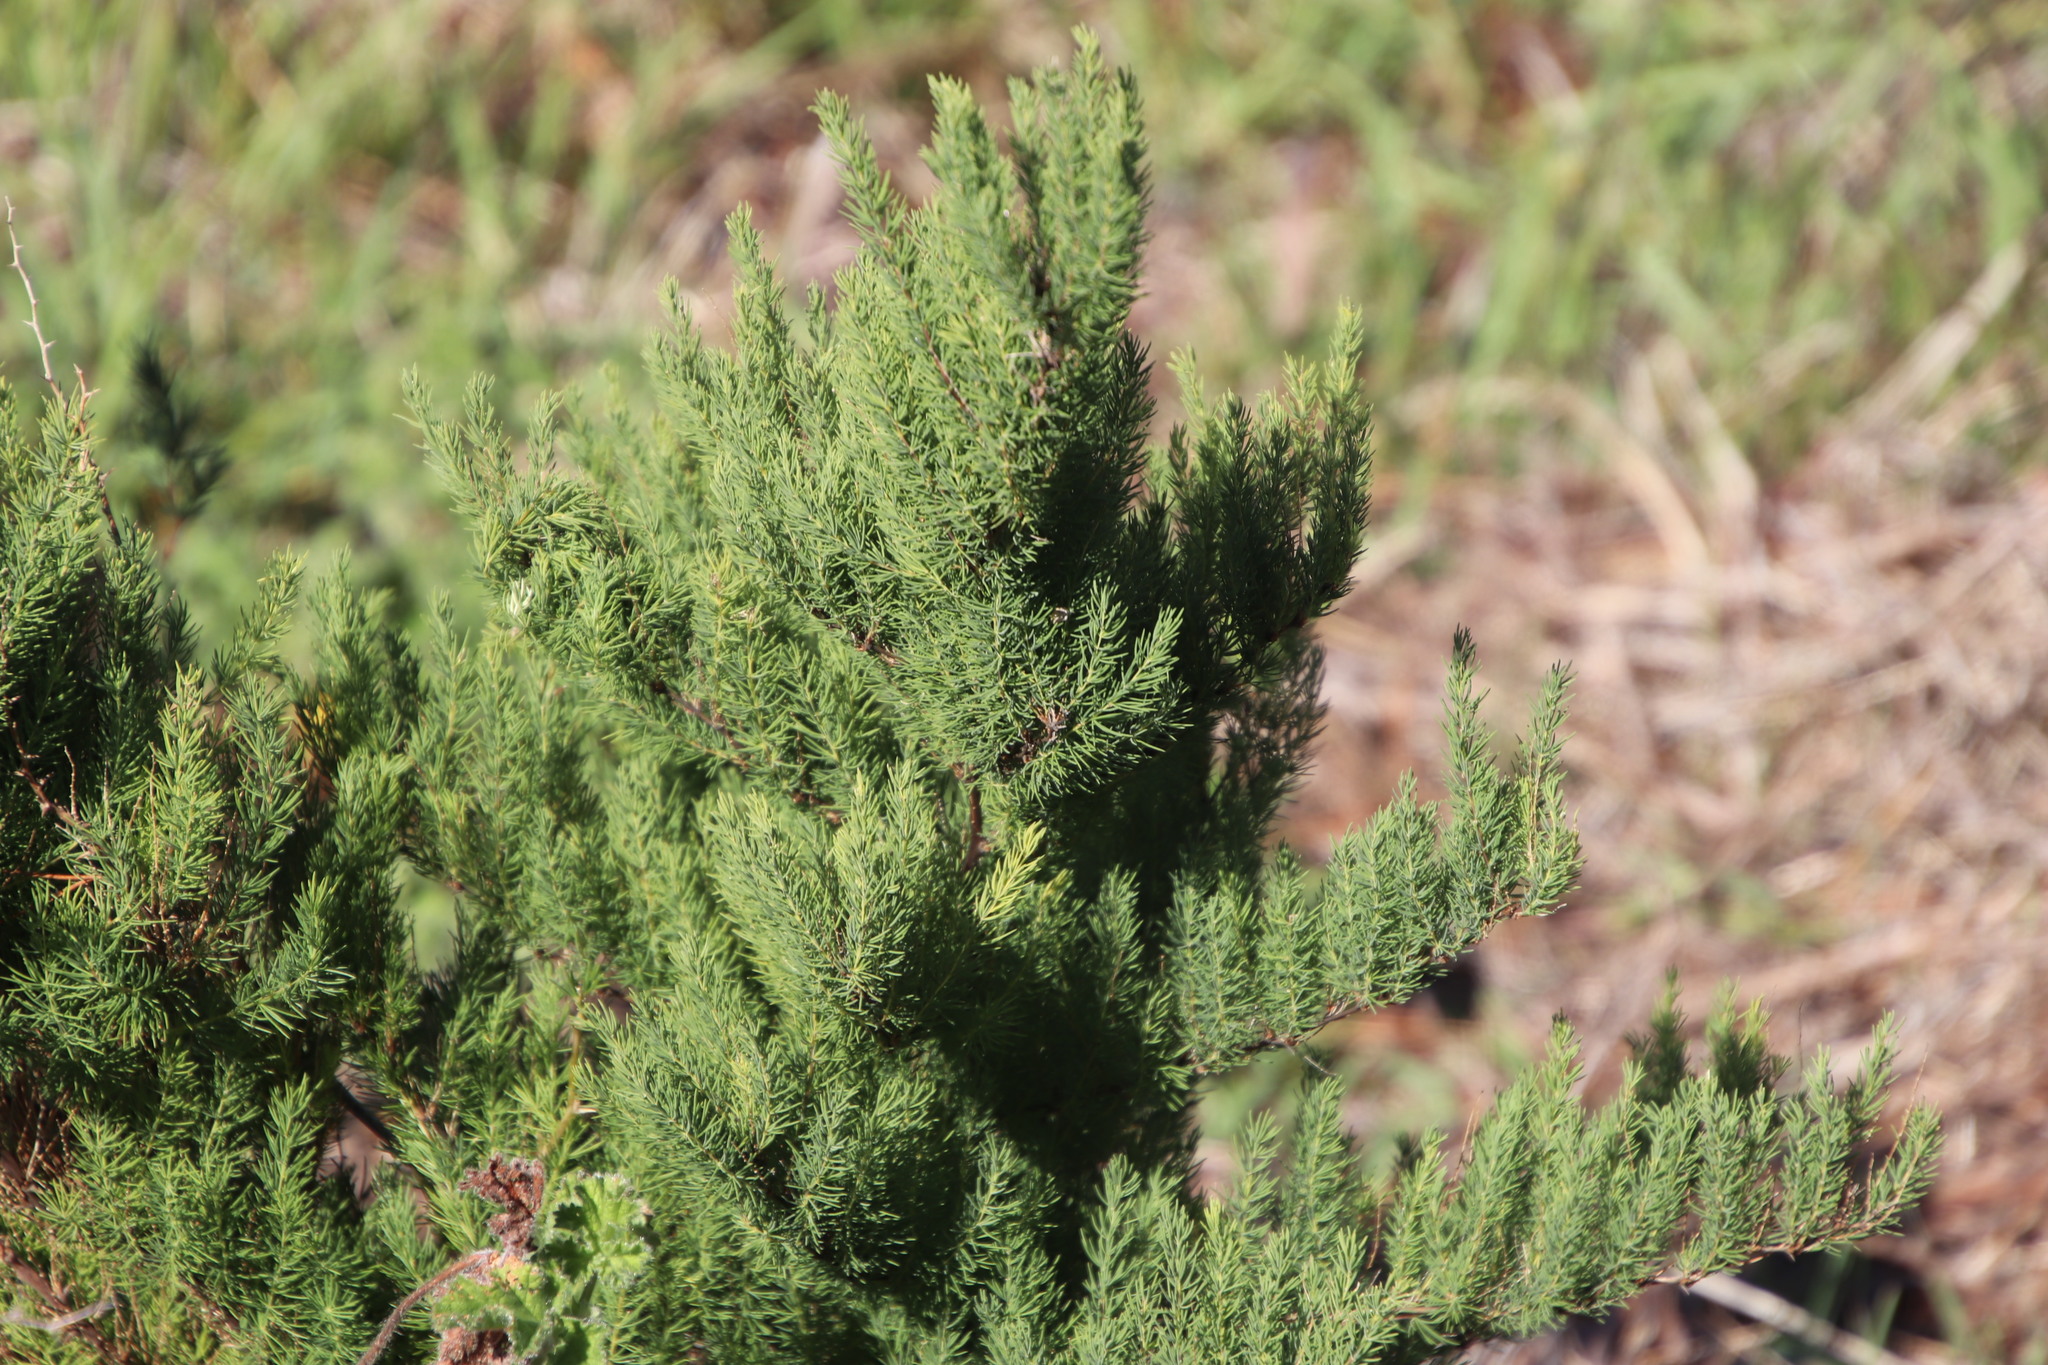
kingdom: Plantae
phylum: Tracheophyta
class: Liliopsida
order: Asparagales
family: Asparagaceae
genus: Asparagus
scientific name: Asparagus rubicundus
